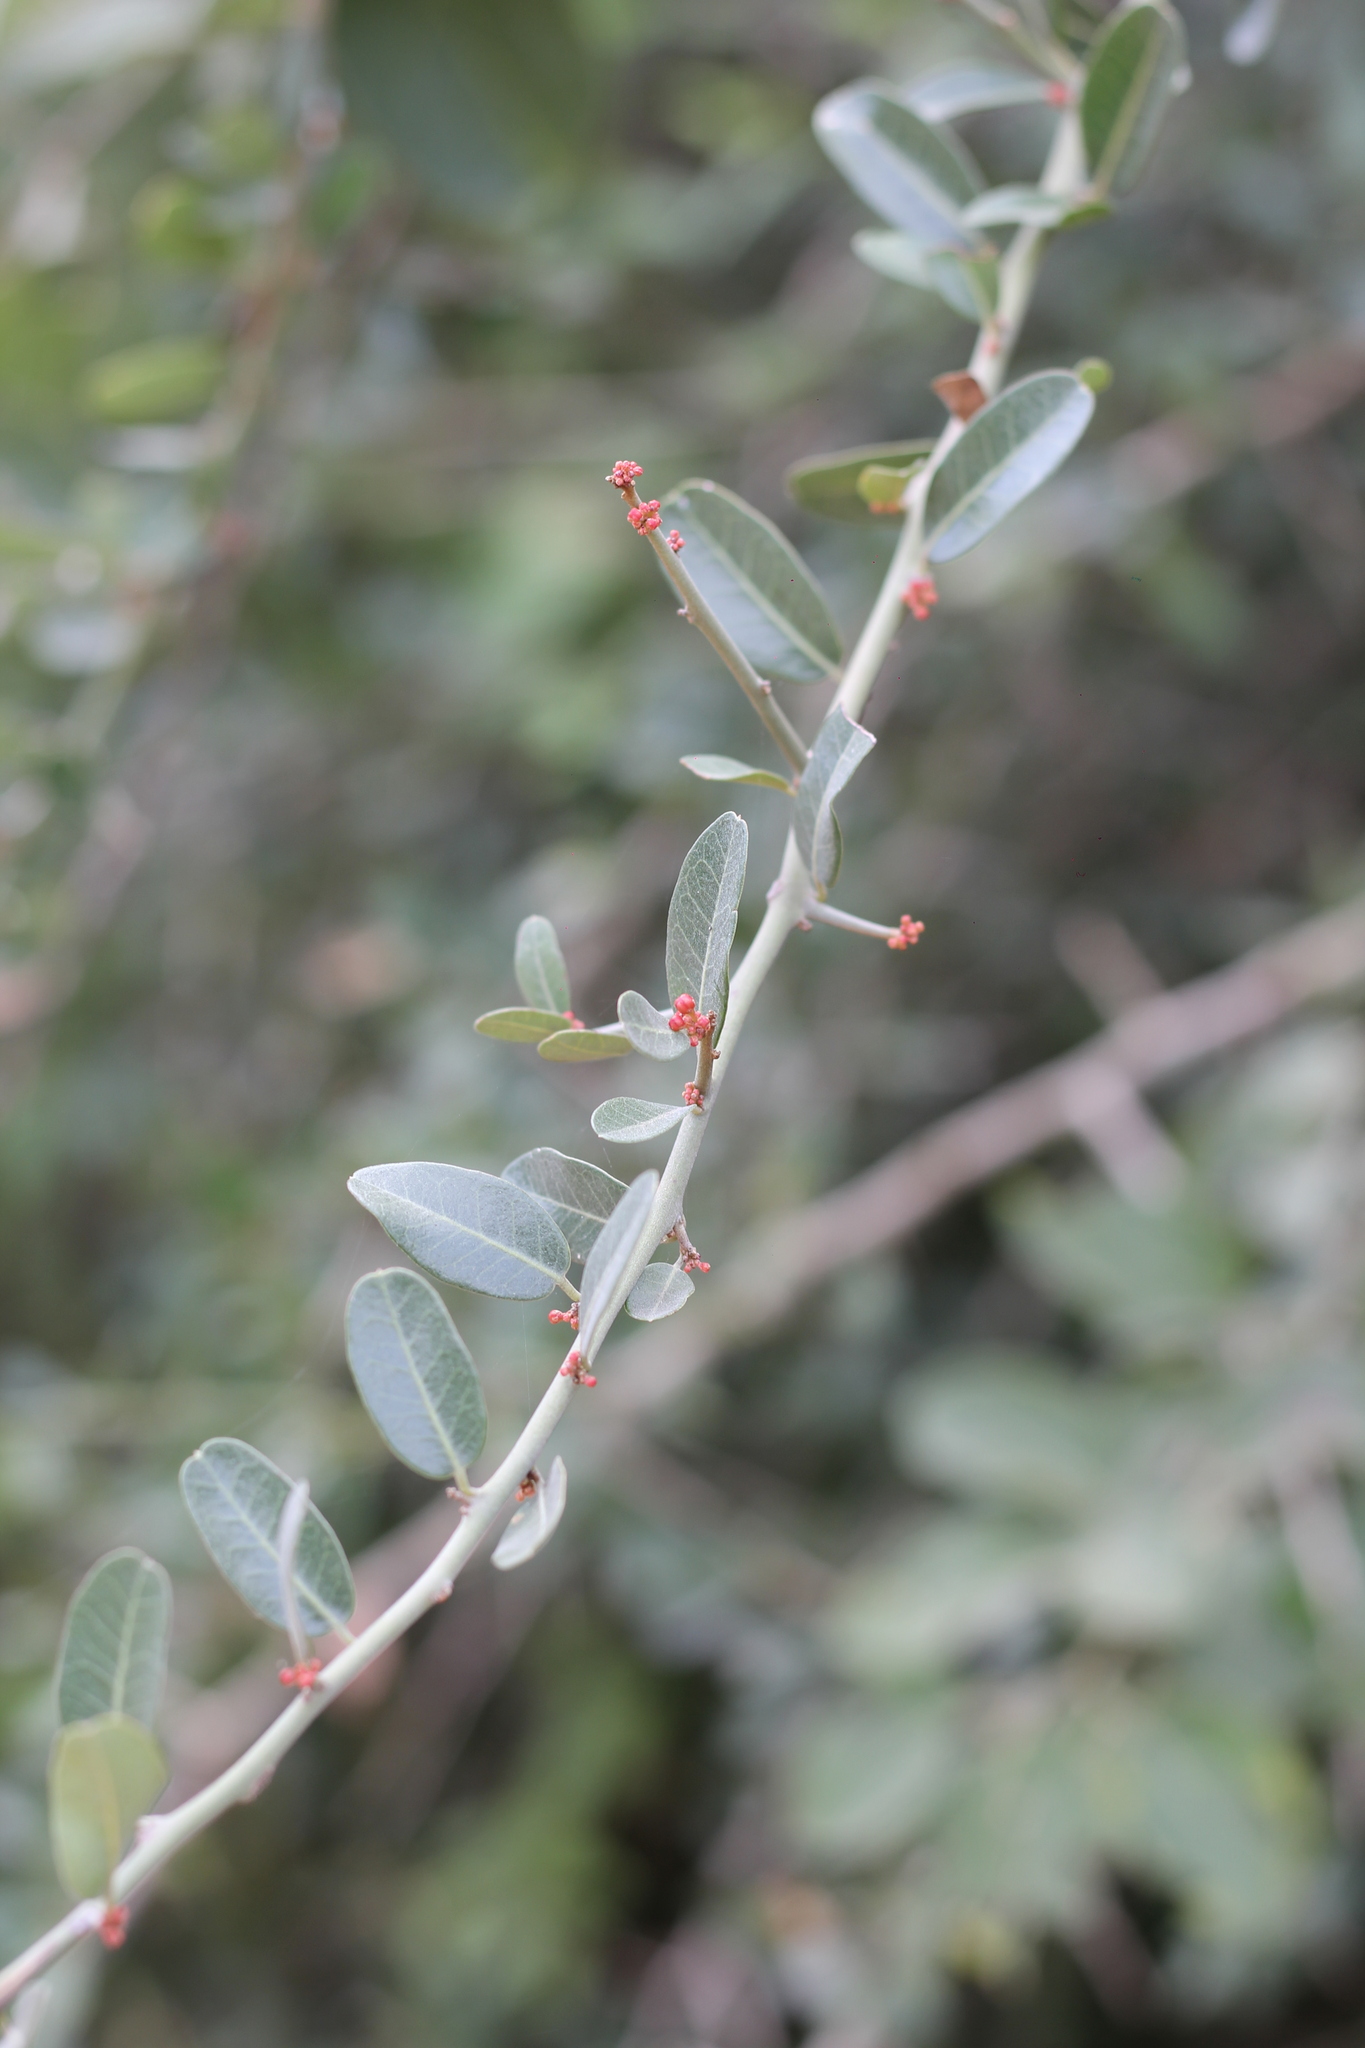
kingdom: Plantae
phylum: Tracheophyta
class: Magnoliopsida
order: Sapindales
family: Simaroubaceae
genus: Castela
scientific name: Castela coccinea
